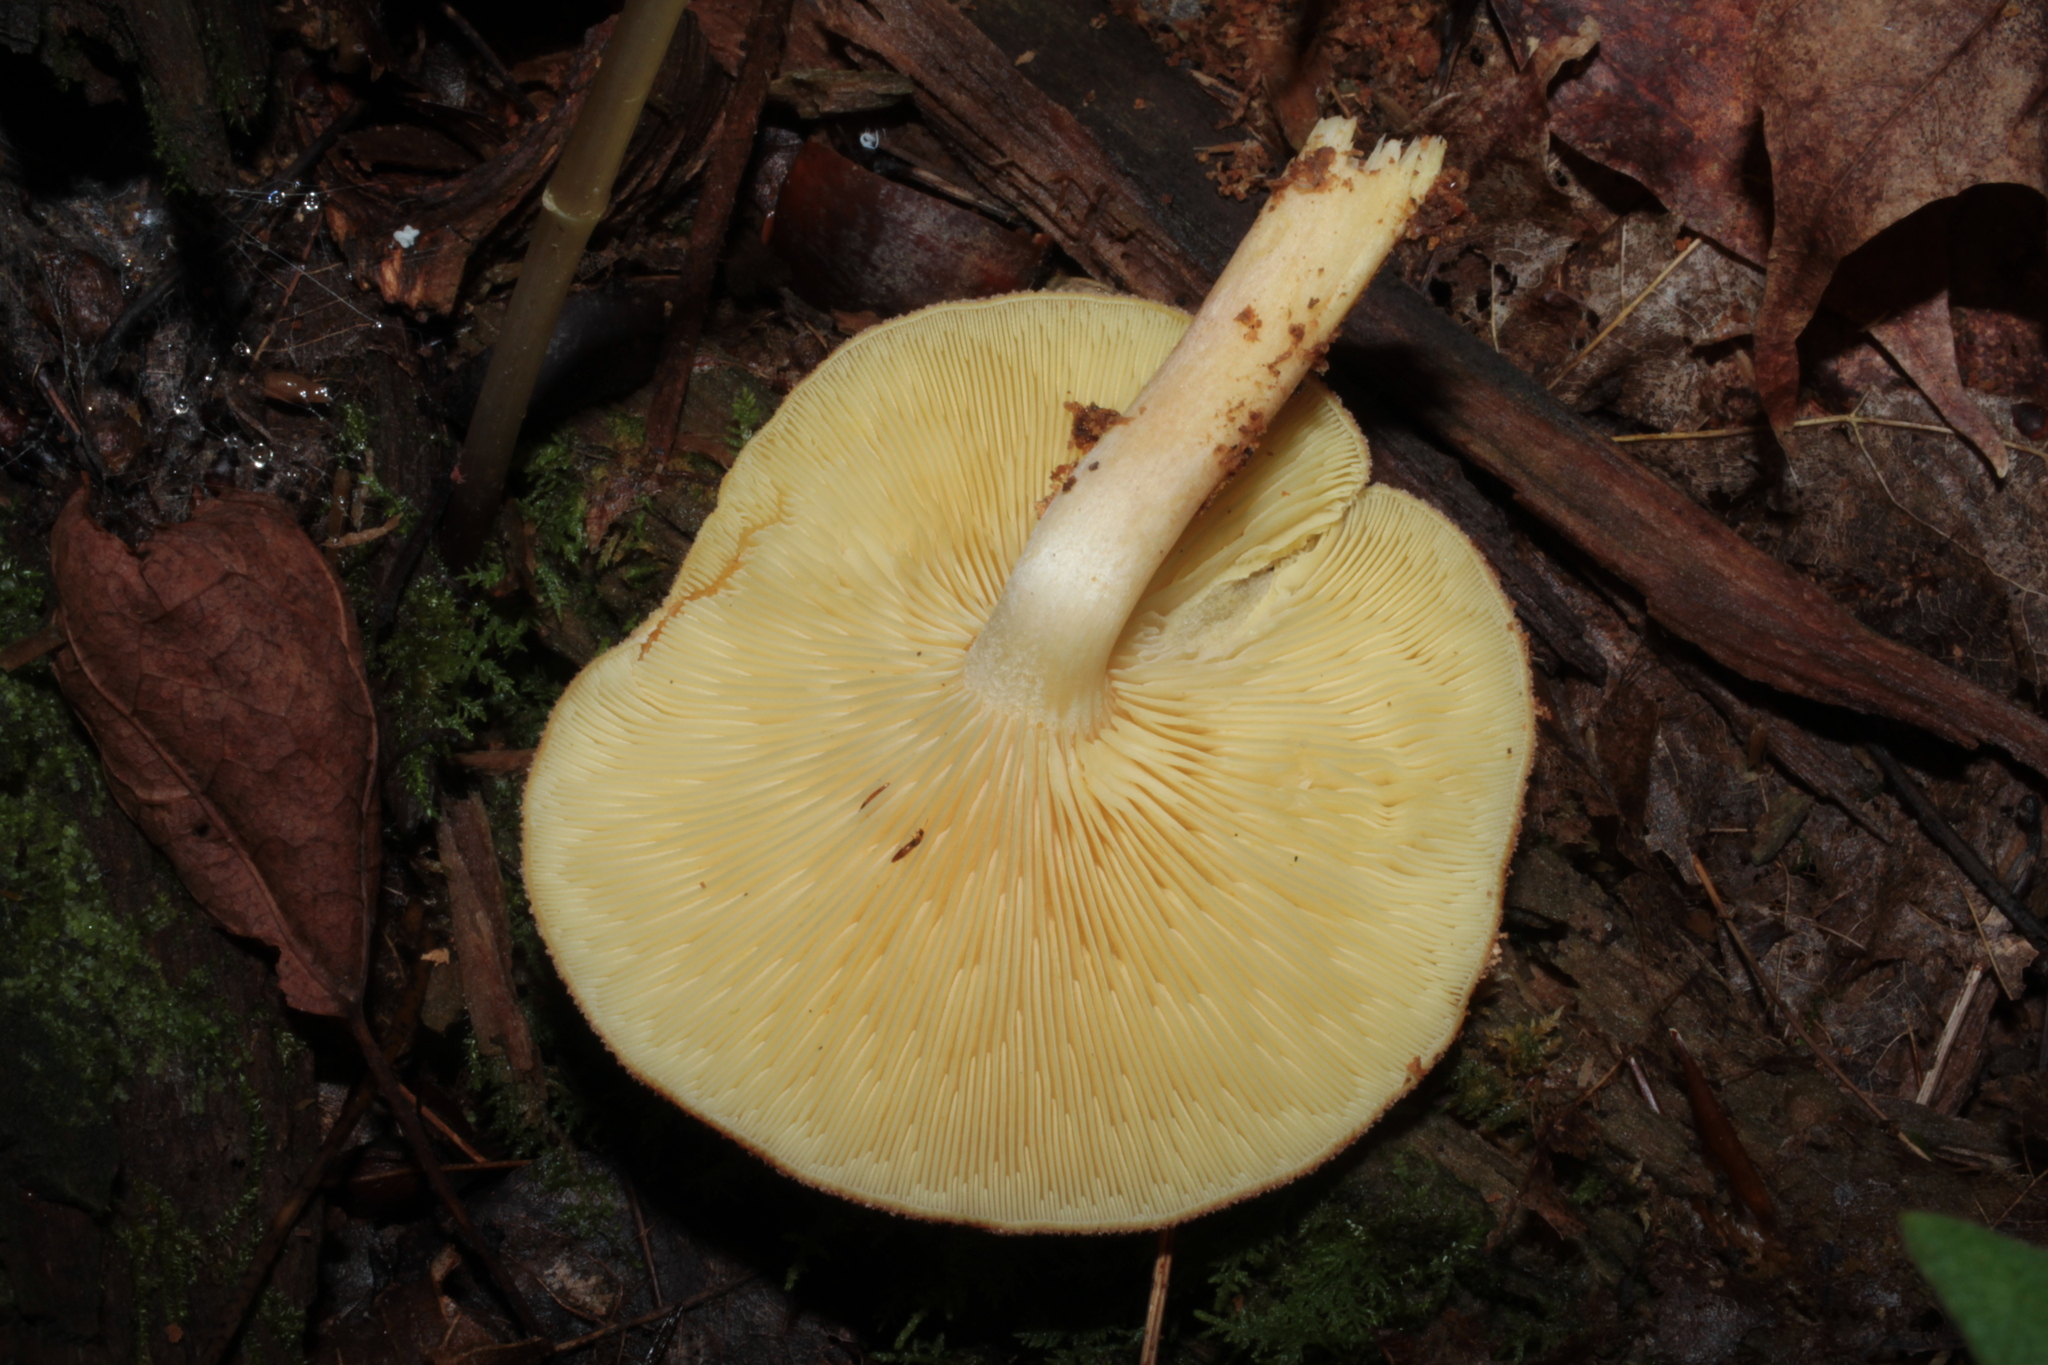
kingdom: Fungi
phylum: Basidiomycota
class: Agaricomycetes
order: Agaricales
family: Tricholomataceae
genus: Tricholomopsis
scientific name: Tricholomopsis flammula
